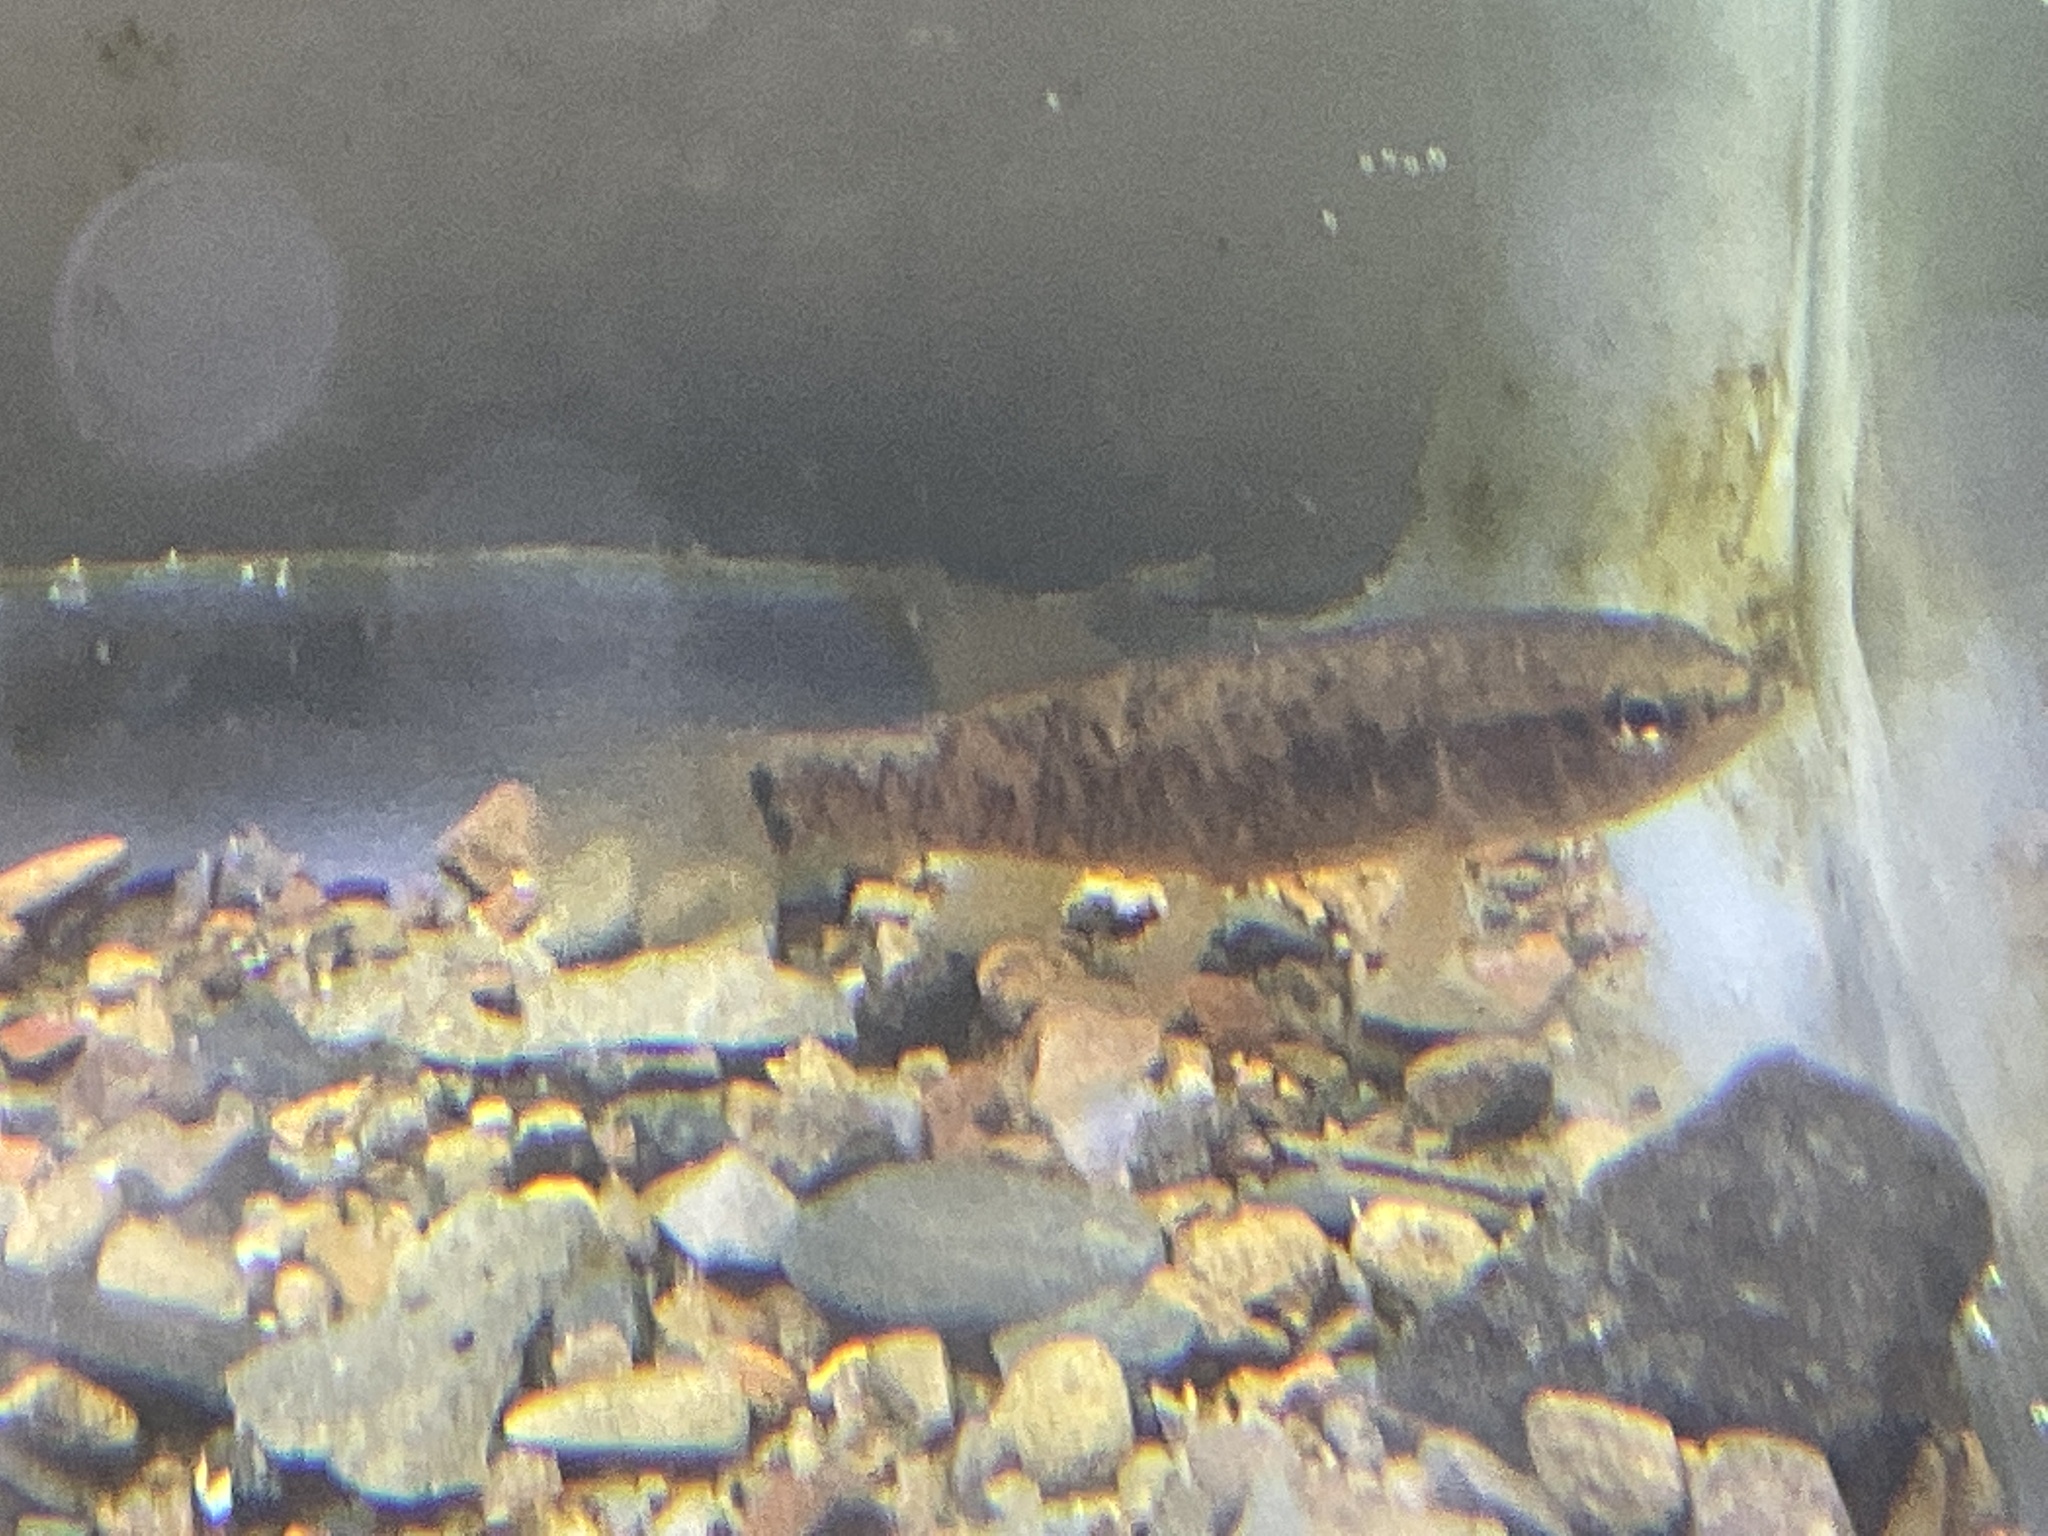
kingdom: Animalia
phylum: Chordata
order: Esociformes
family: Umbridae
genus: Umbra
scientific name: Umbra limi
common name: Central mudminnow
